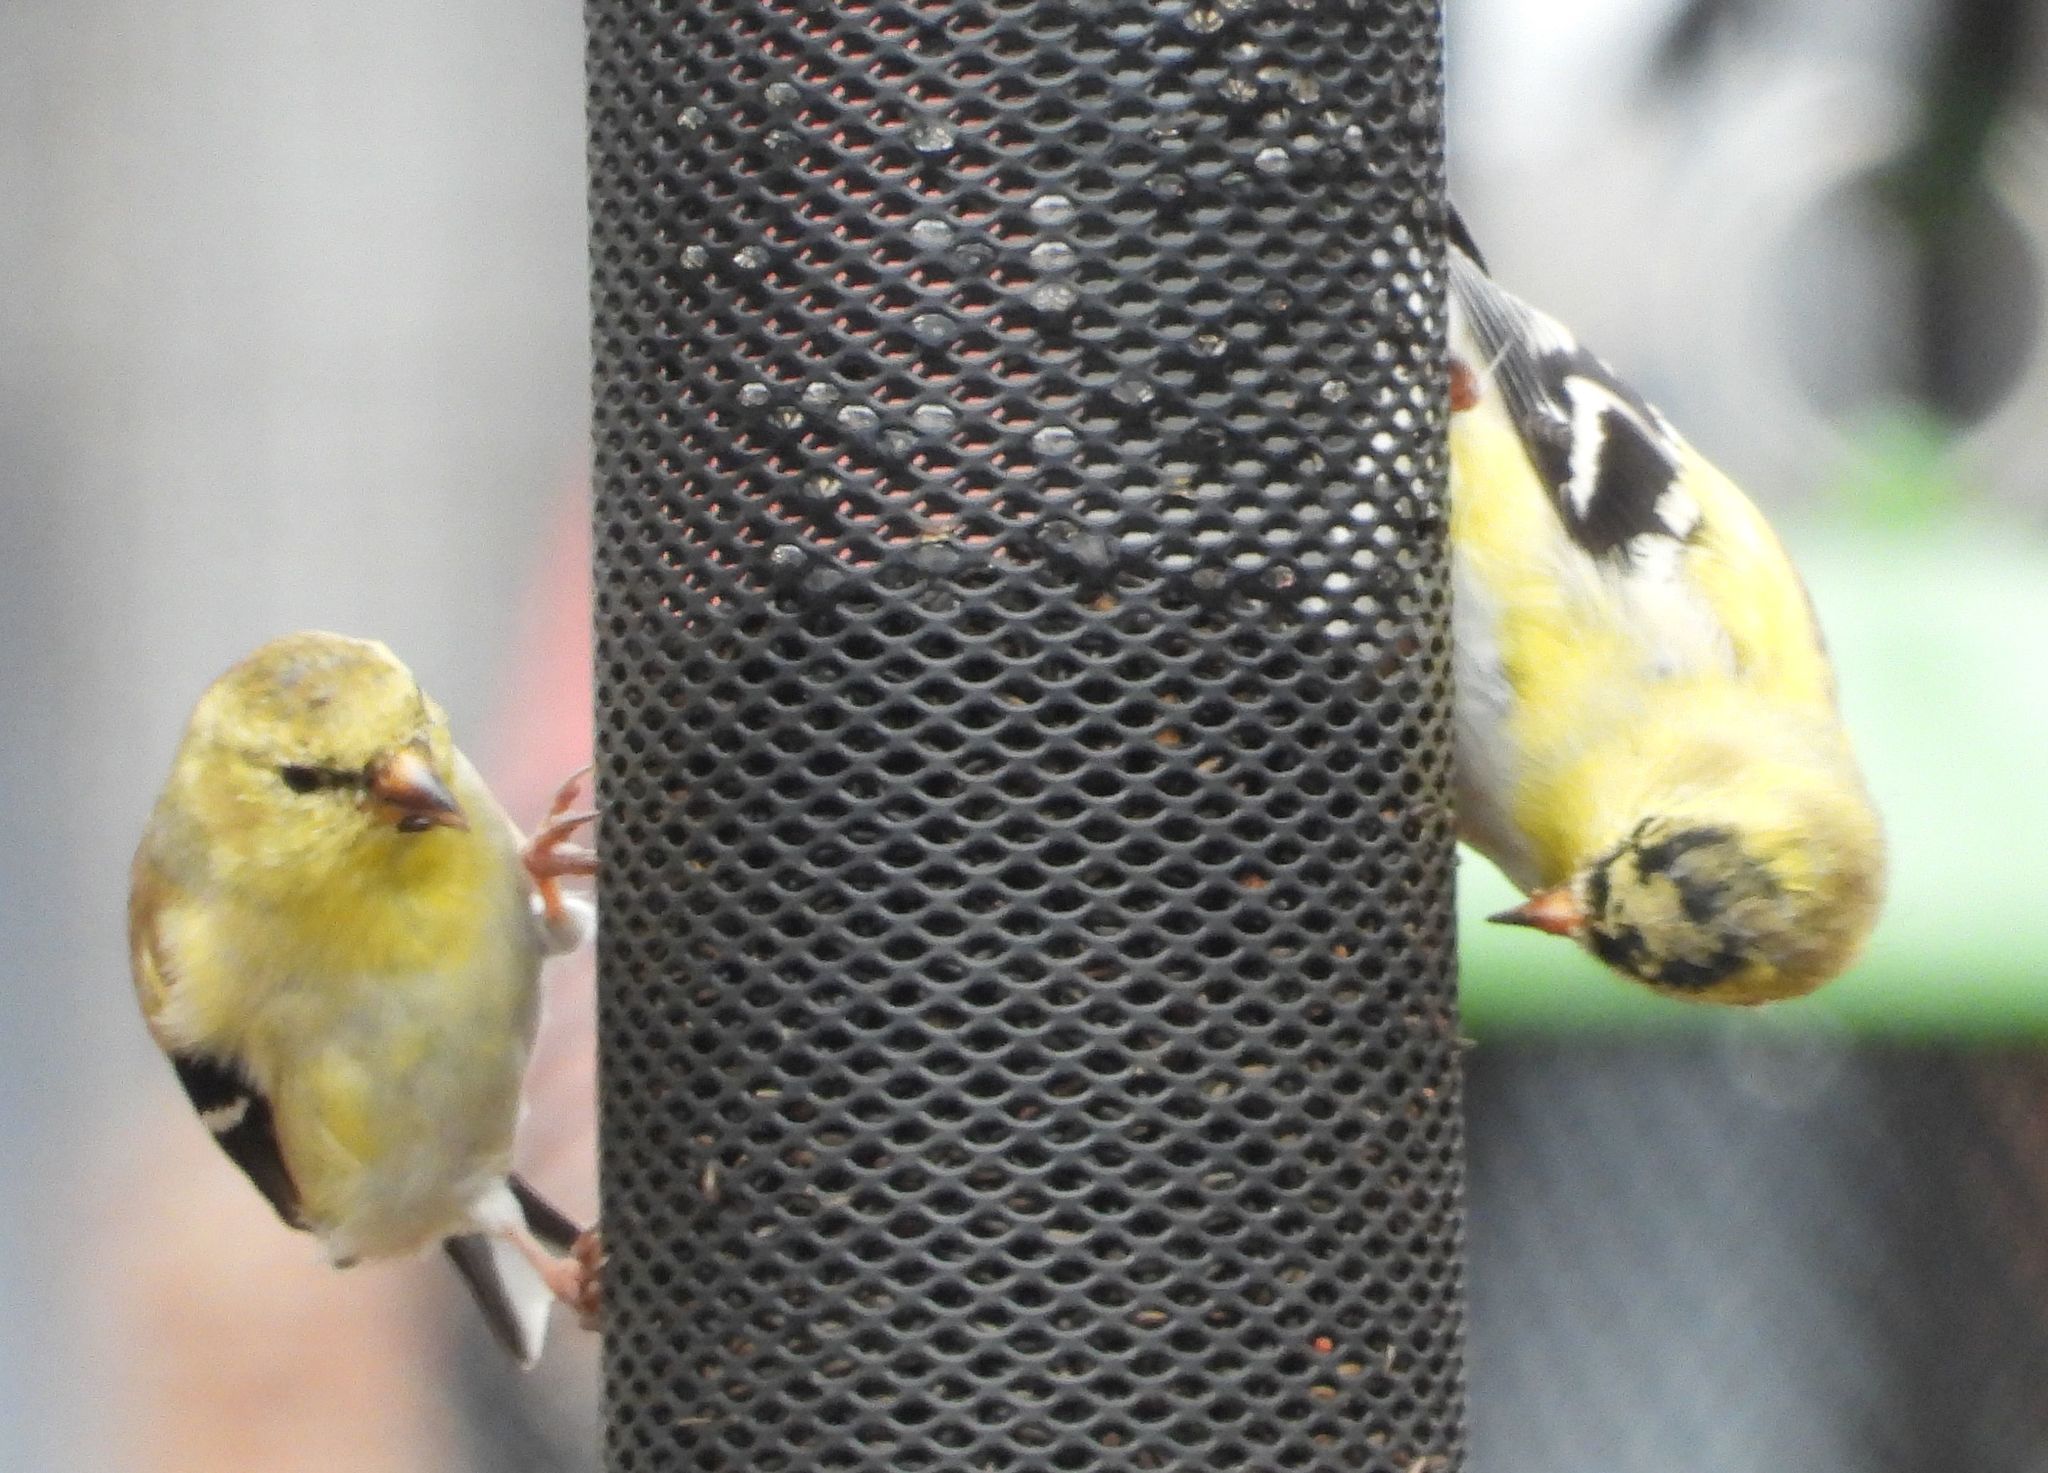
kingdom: Animalia
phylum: Chordata
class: Aves
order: Passeriformes
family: Fringillidae
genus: Spinus
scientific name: Spinus tristis
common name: American goldfinch
